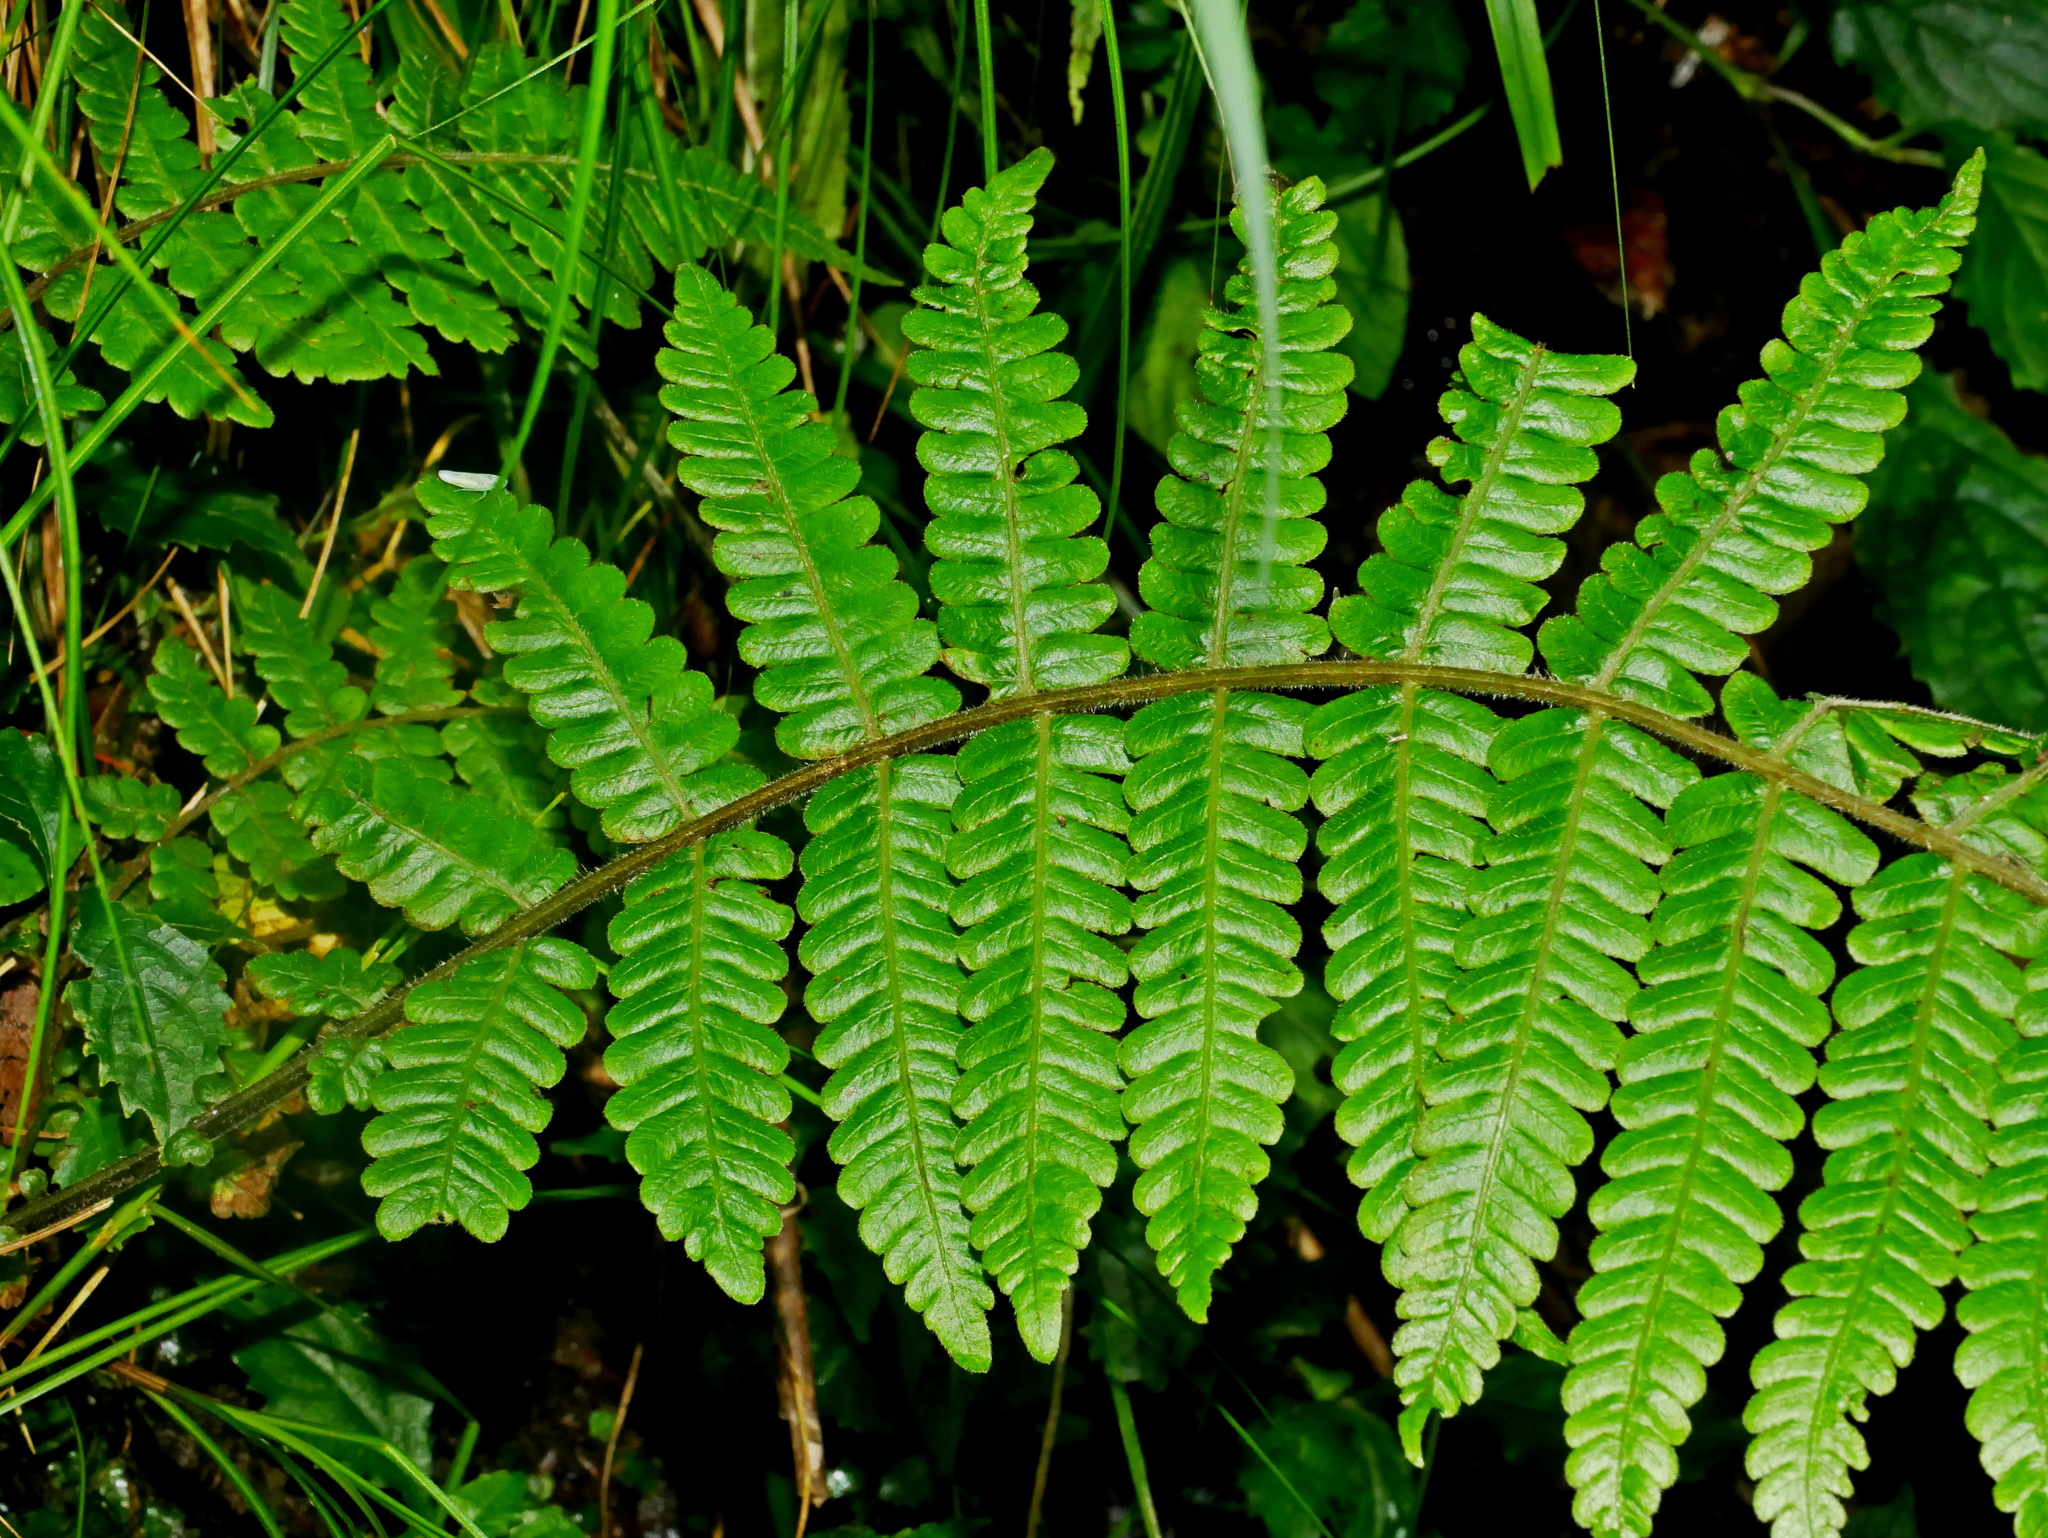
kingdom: Plantae
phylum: Tracheophyta
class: Polypodiopsida
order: Polypodiales
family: Thelypteridaceae
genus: Cyclogramma
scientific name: Cyclogramma auriculata
